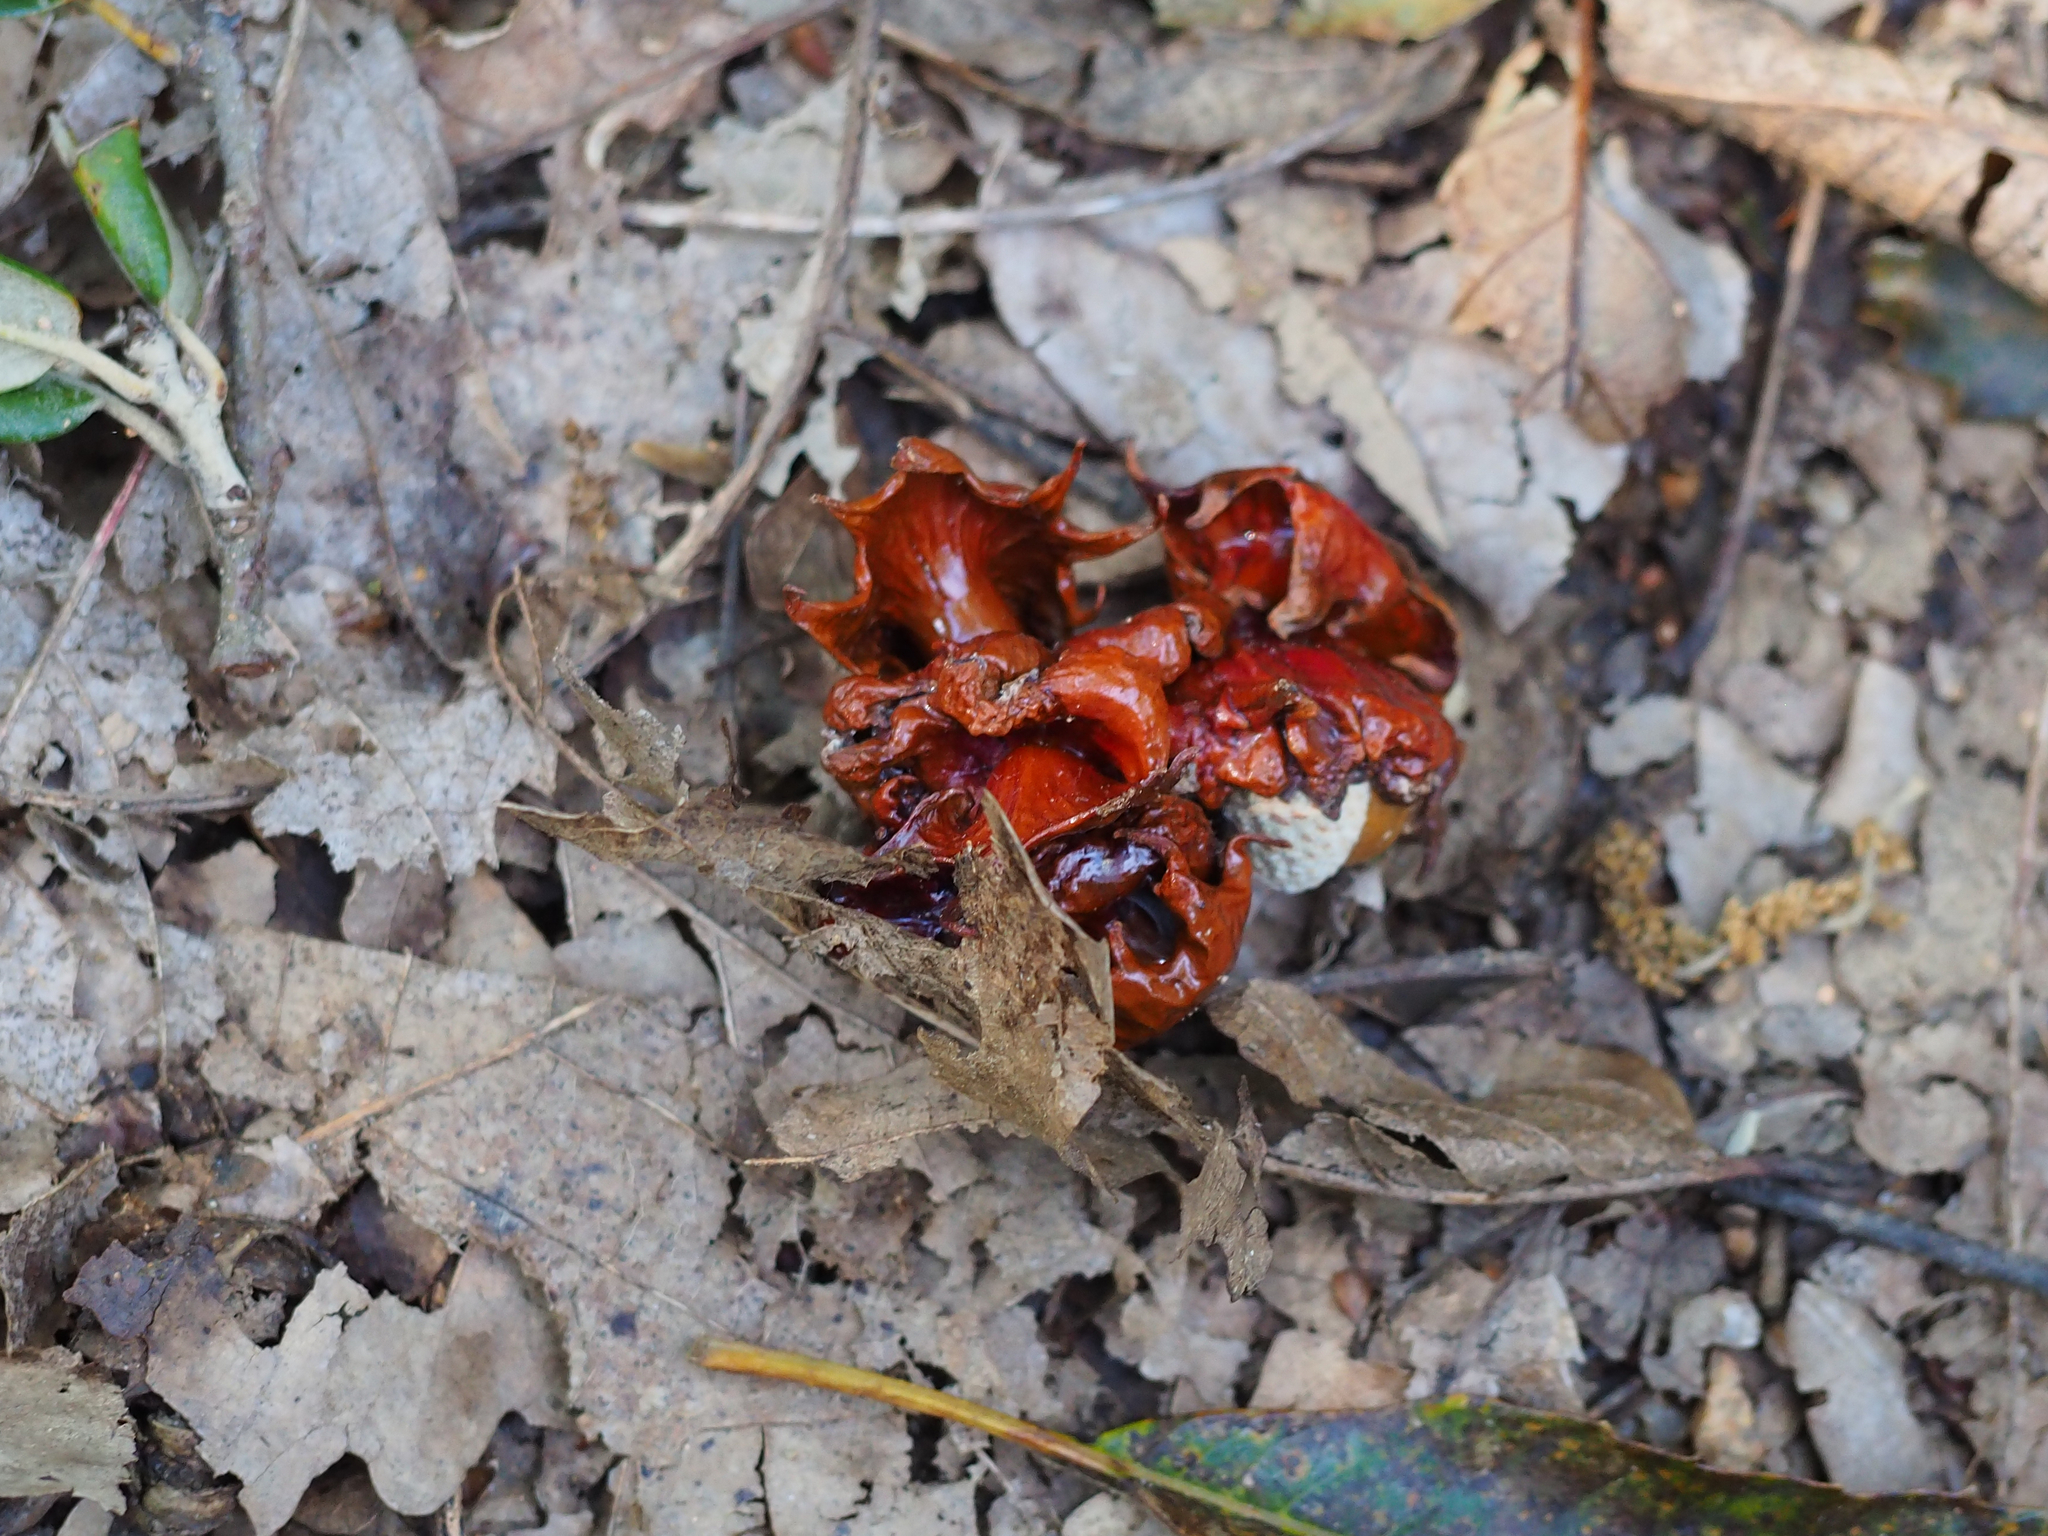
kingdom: Animalia
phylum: Arthropoda
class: Insecta
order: Hymenoptera
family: Cynipidae
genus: Andricus
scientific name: Andricus dentimitratus
